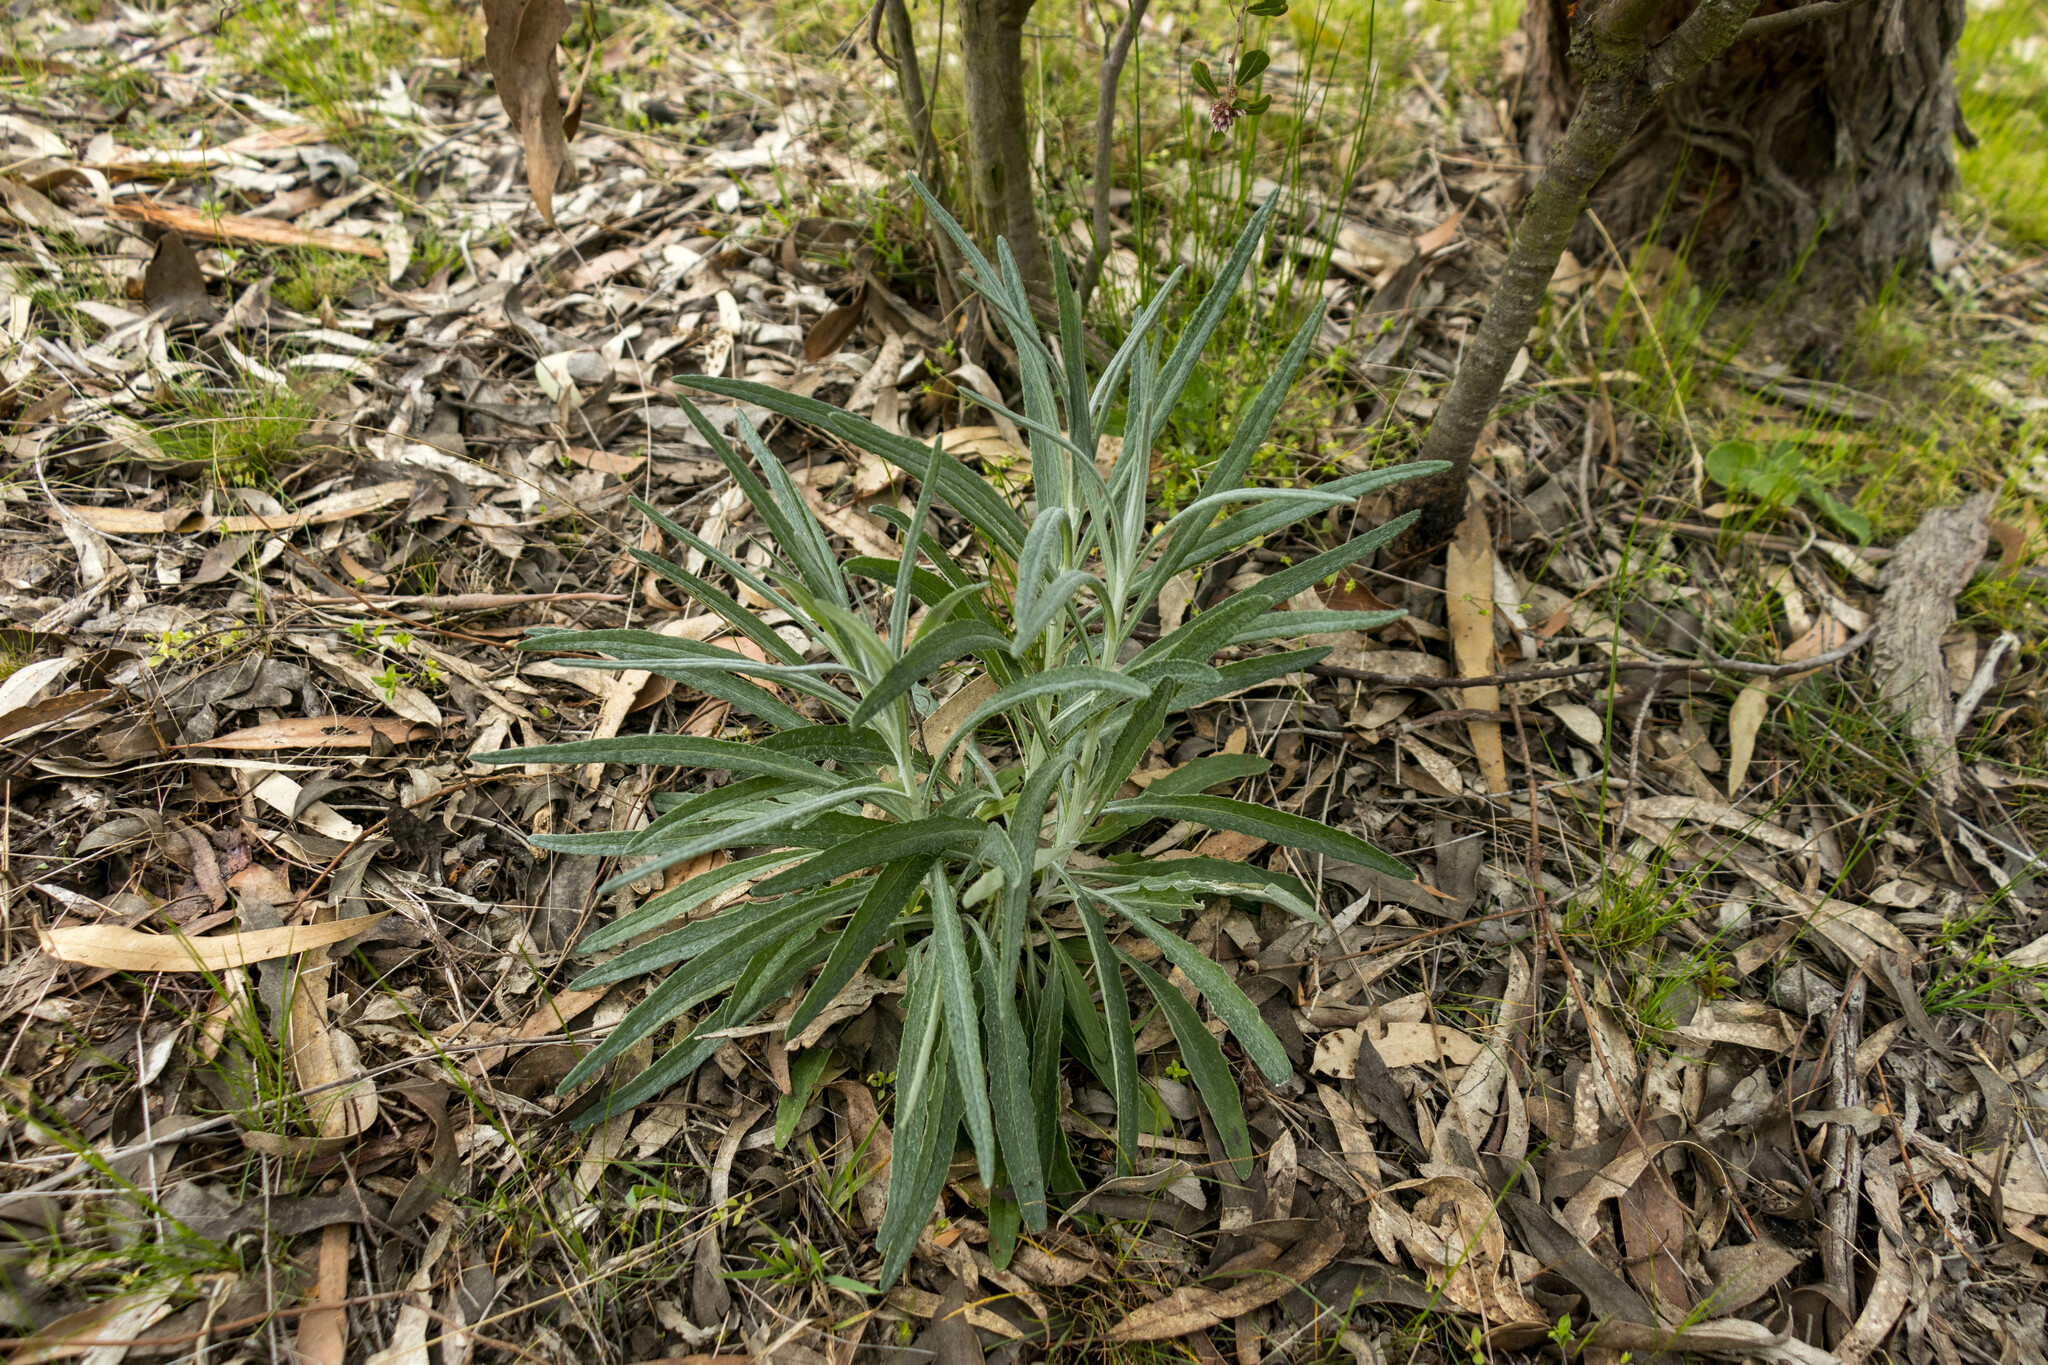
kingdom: Plantae
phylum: Tracheophyta
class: Magnoliopsida
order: Asterales
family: Asteraceae
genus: Senecio
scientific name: Senecio quadridentatus
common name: Cotton fireweed
